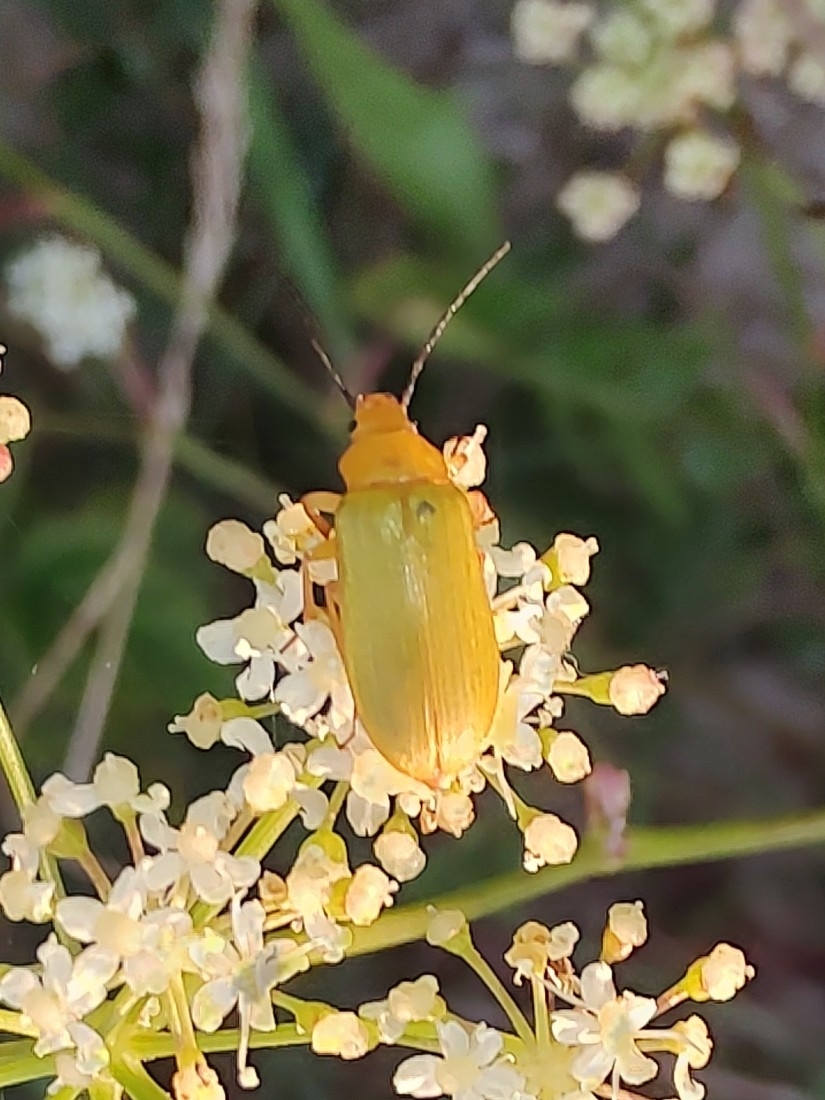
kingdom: Animalia
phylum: Arthropoda
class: Insecta
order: Coleoptera
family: Tenebrionidae
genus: Cteniopus
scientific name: Cteniopus sulphureus
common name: Sulphur beetle
